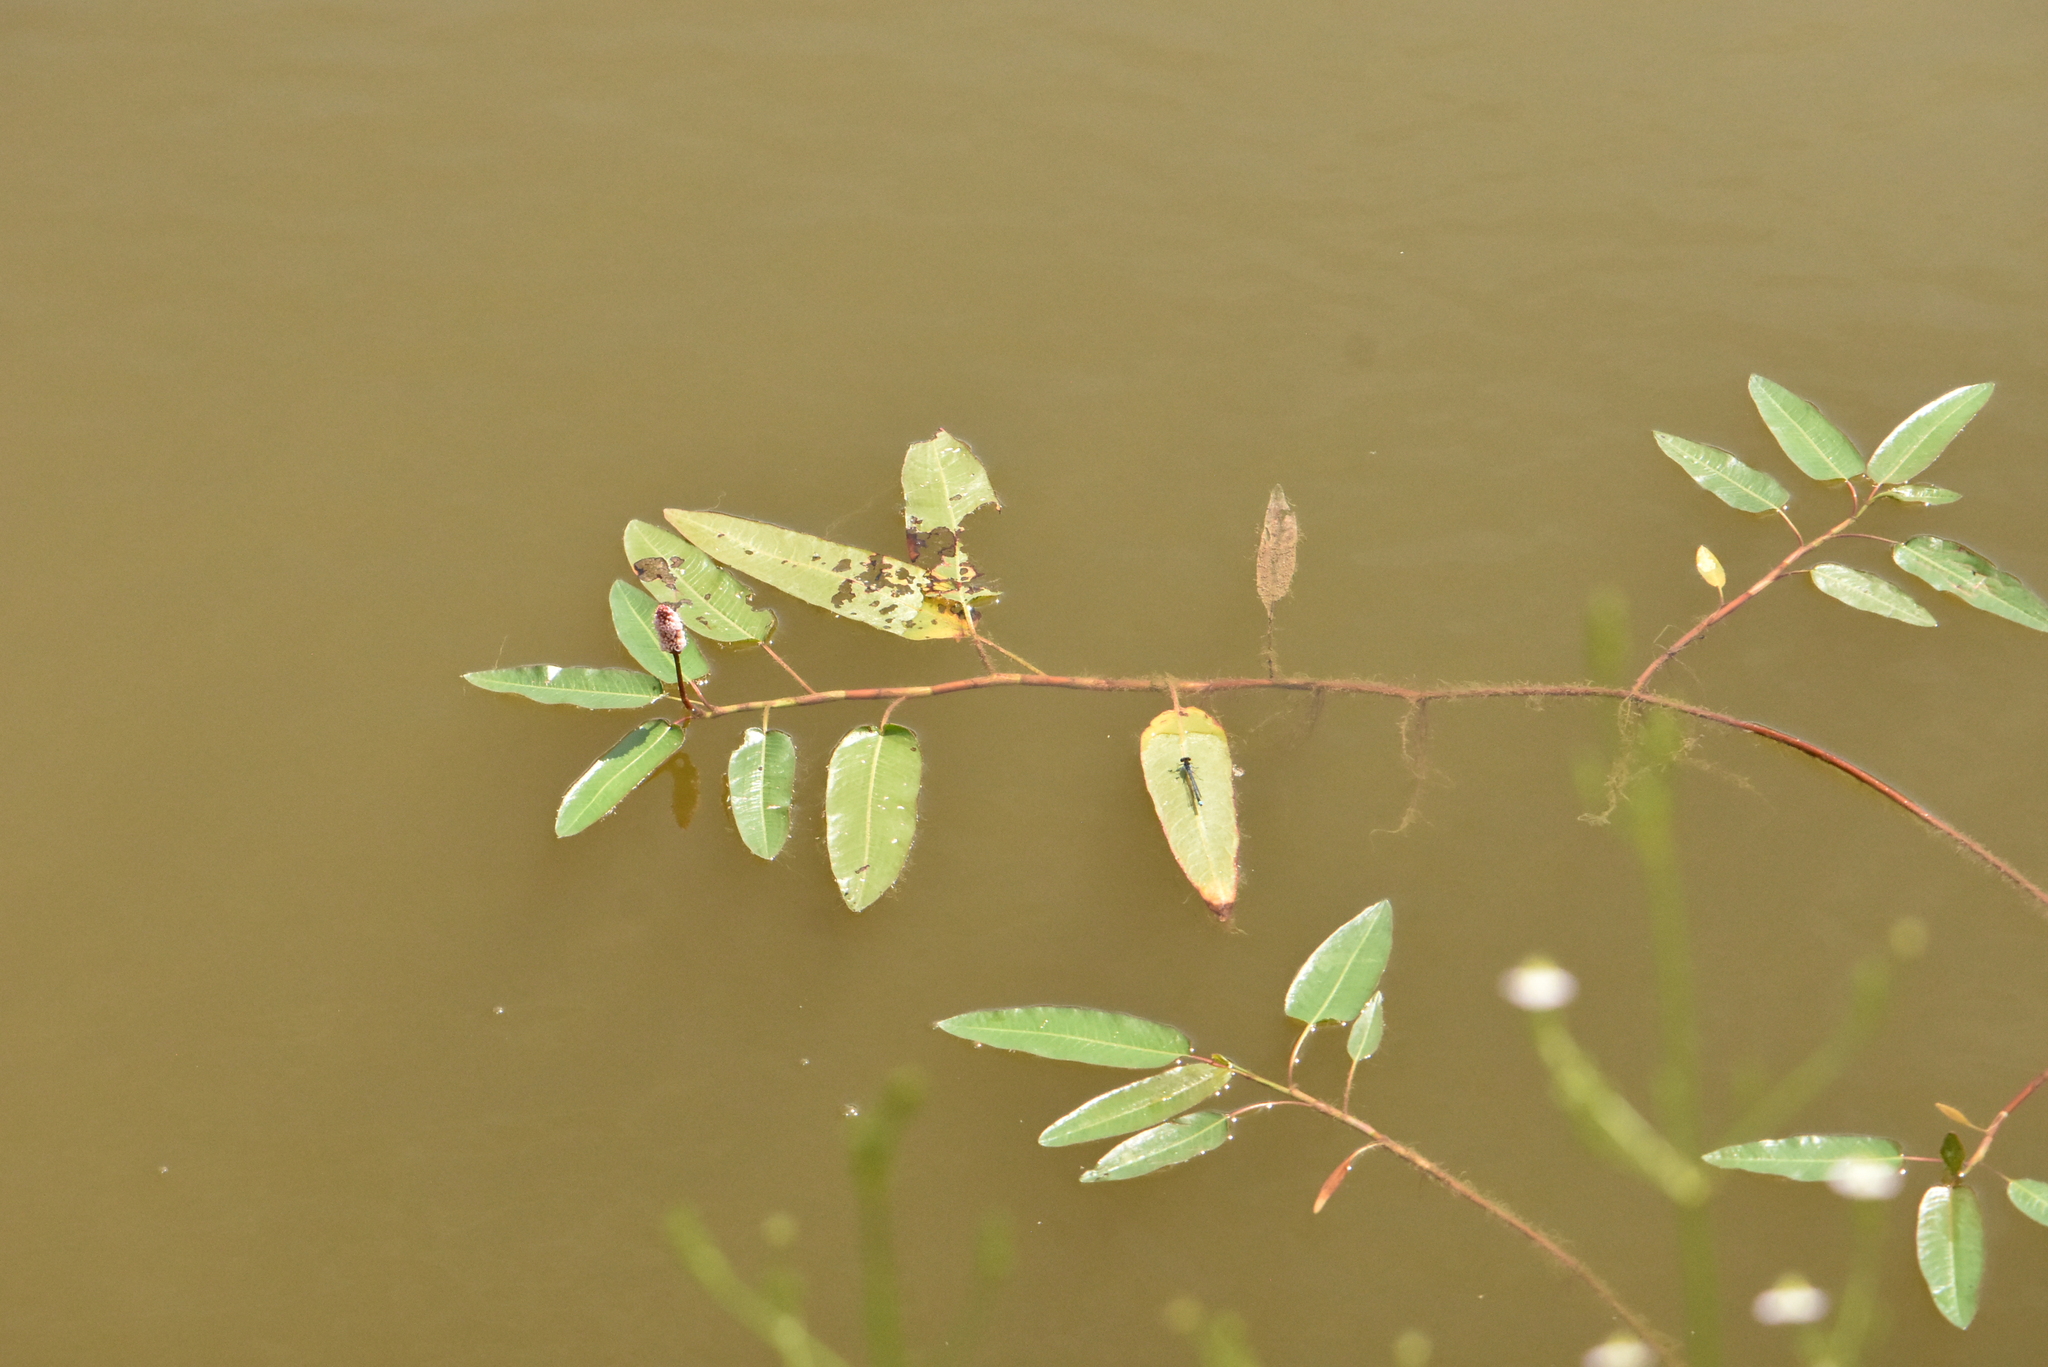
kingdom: Plantae
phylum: Tracheophyta
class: Magnoliopsida
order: Caryophyllales
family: Polygonaceae
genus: Persicaria
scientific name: Persicaria amphibia
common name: Amphibious bistort
